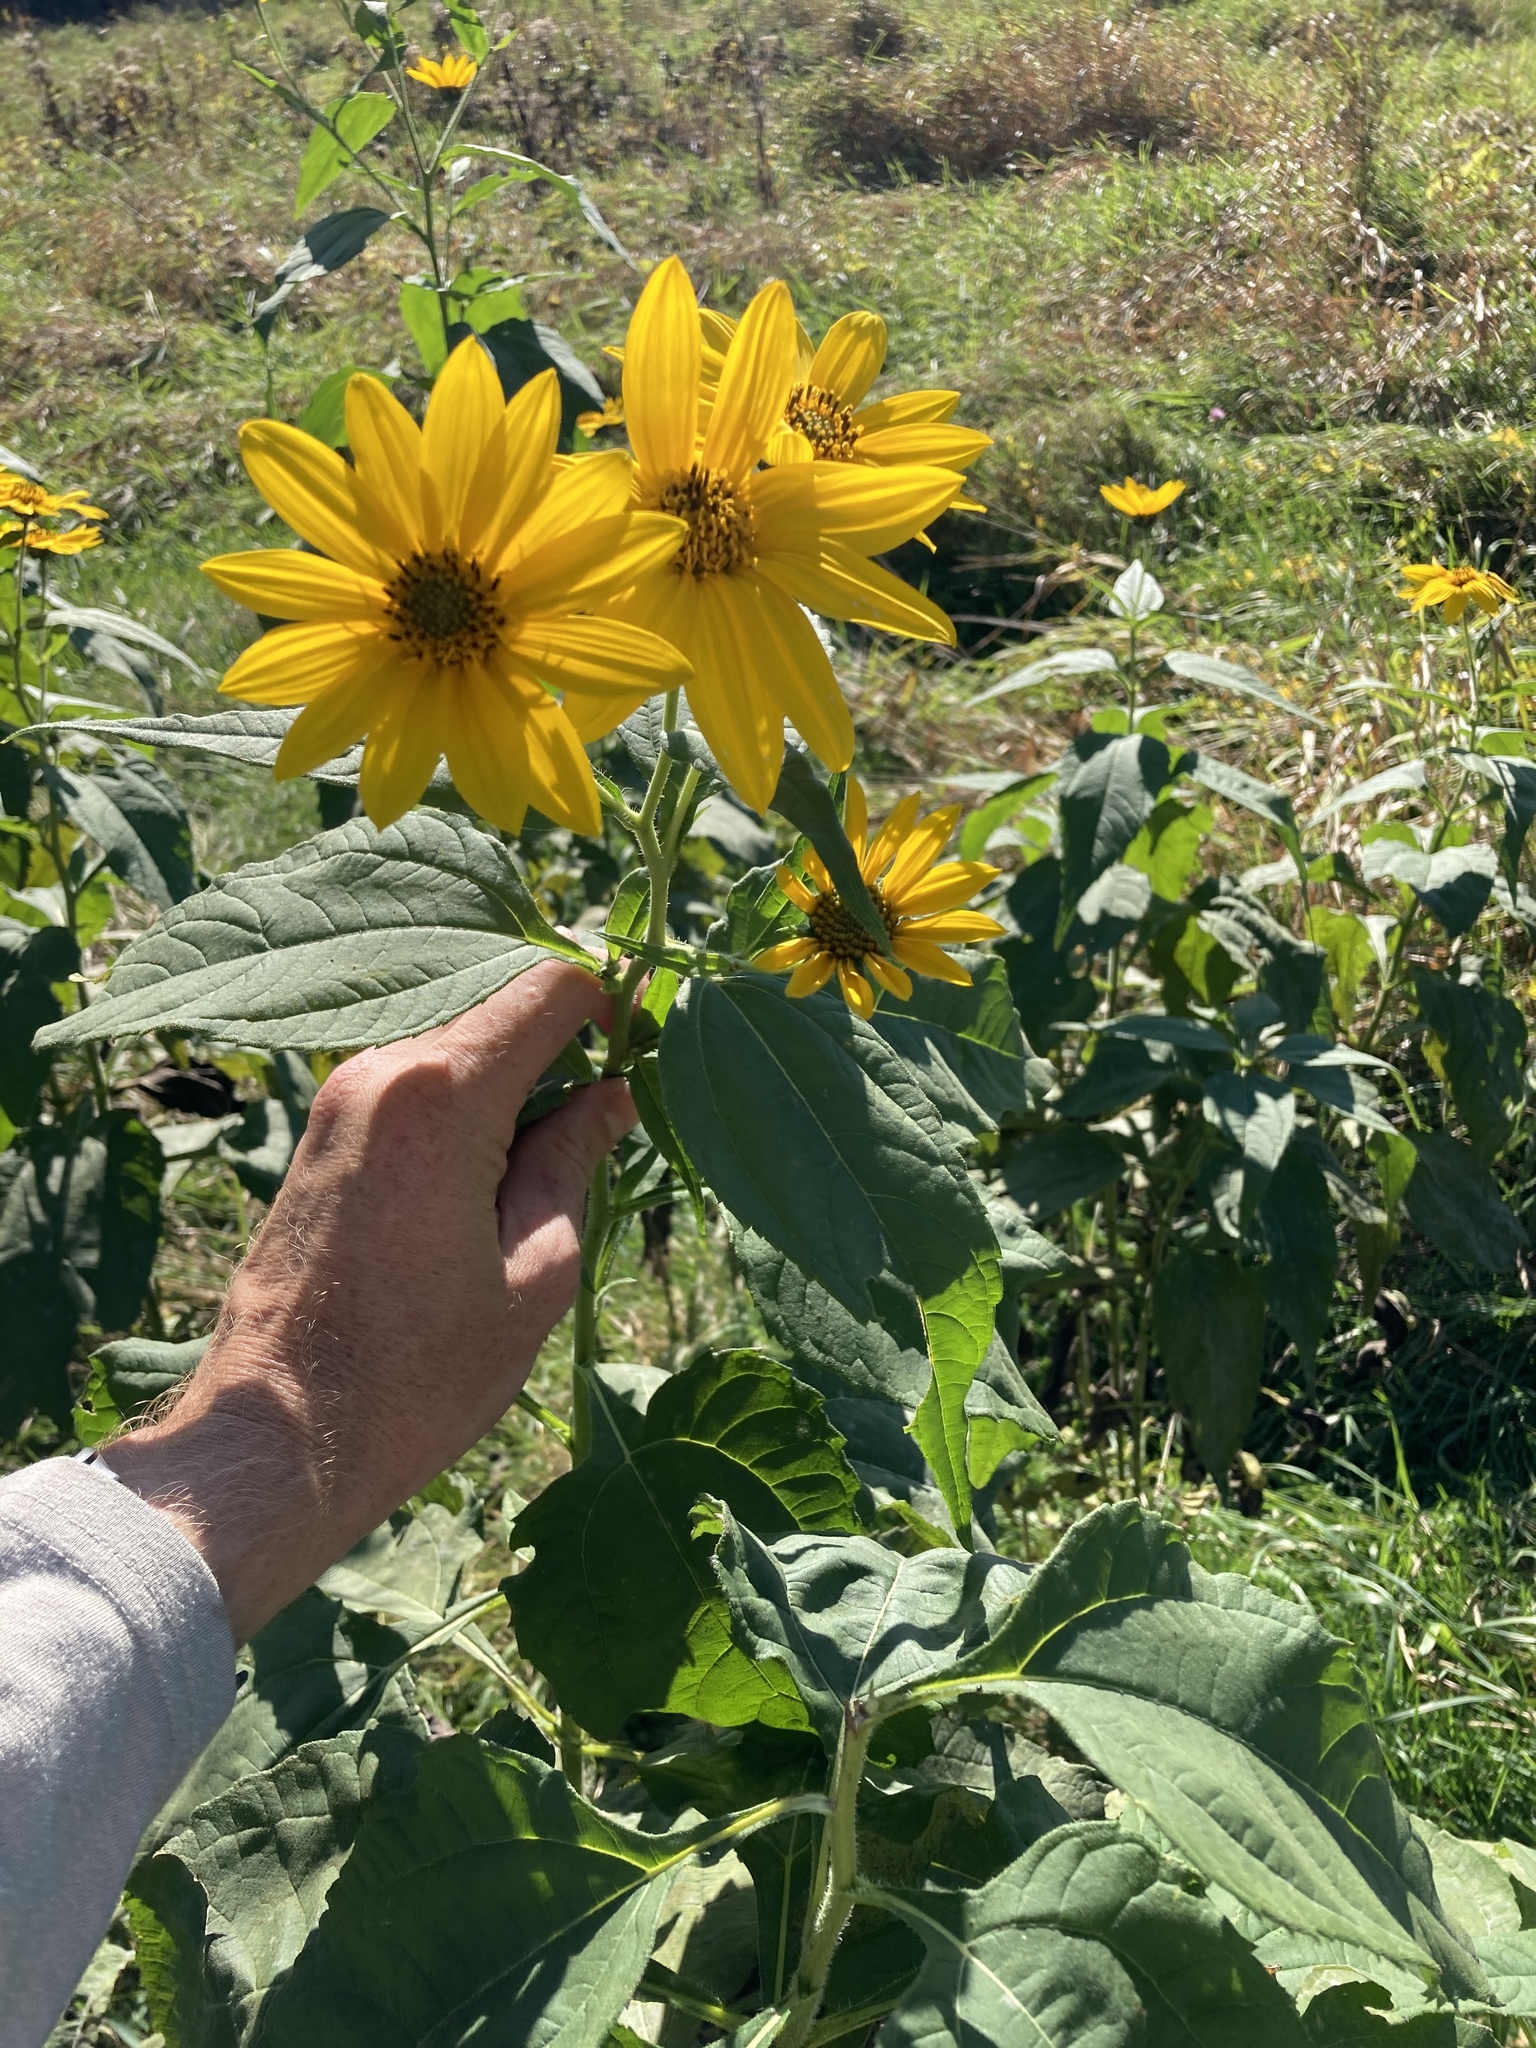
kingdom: Plantae
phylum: Tracheophyta
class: Magnoliopsida
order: Asterales
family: Asteraceae
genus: Helianthus
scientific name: Helianthus tuberosus
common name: Jerusalem artichoke
